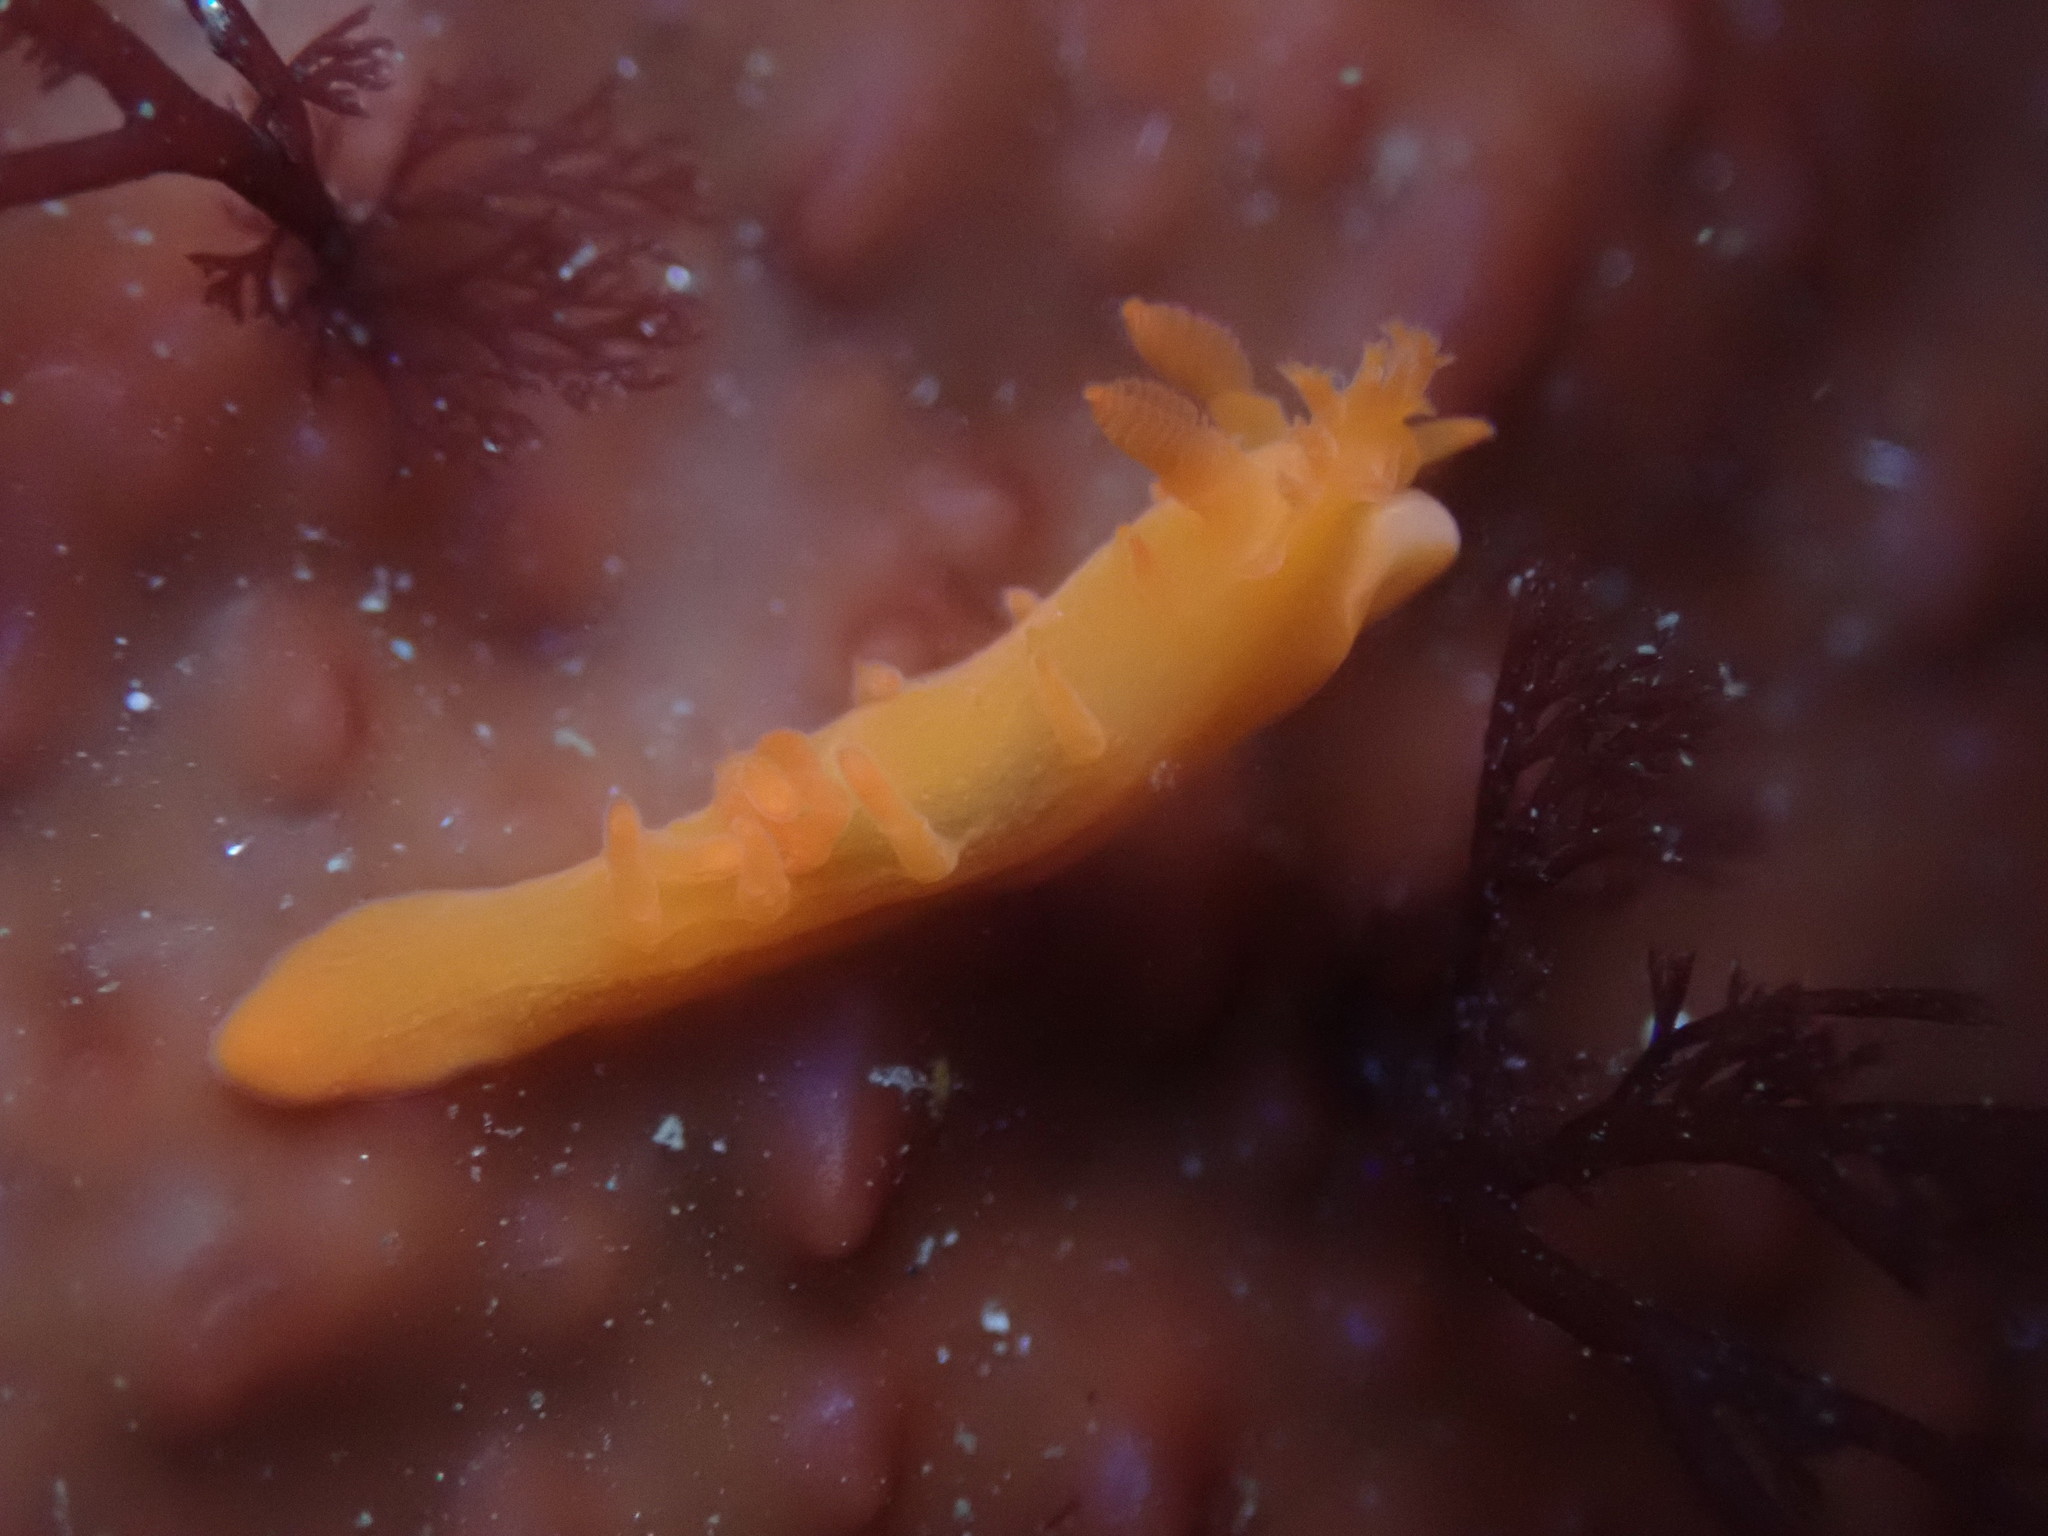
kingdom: Animalia
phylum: Mollusca
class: Gastropoda
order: Nudibranchia
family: Polyceridae
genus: Triopha
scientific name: Triopha maculata
